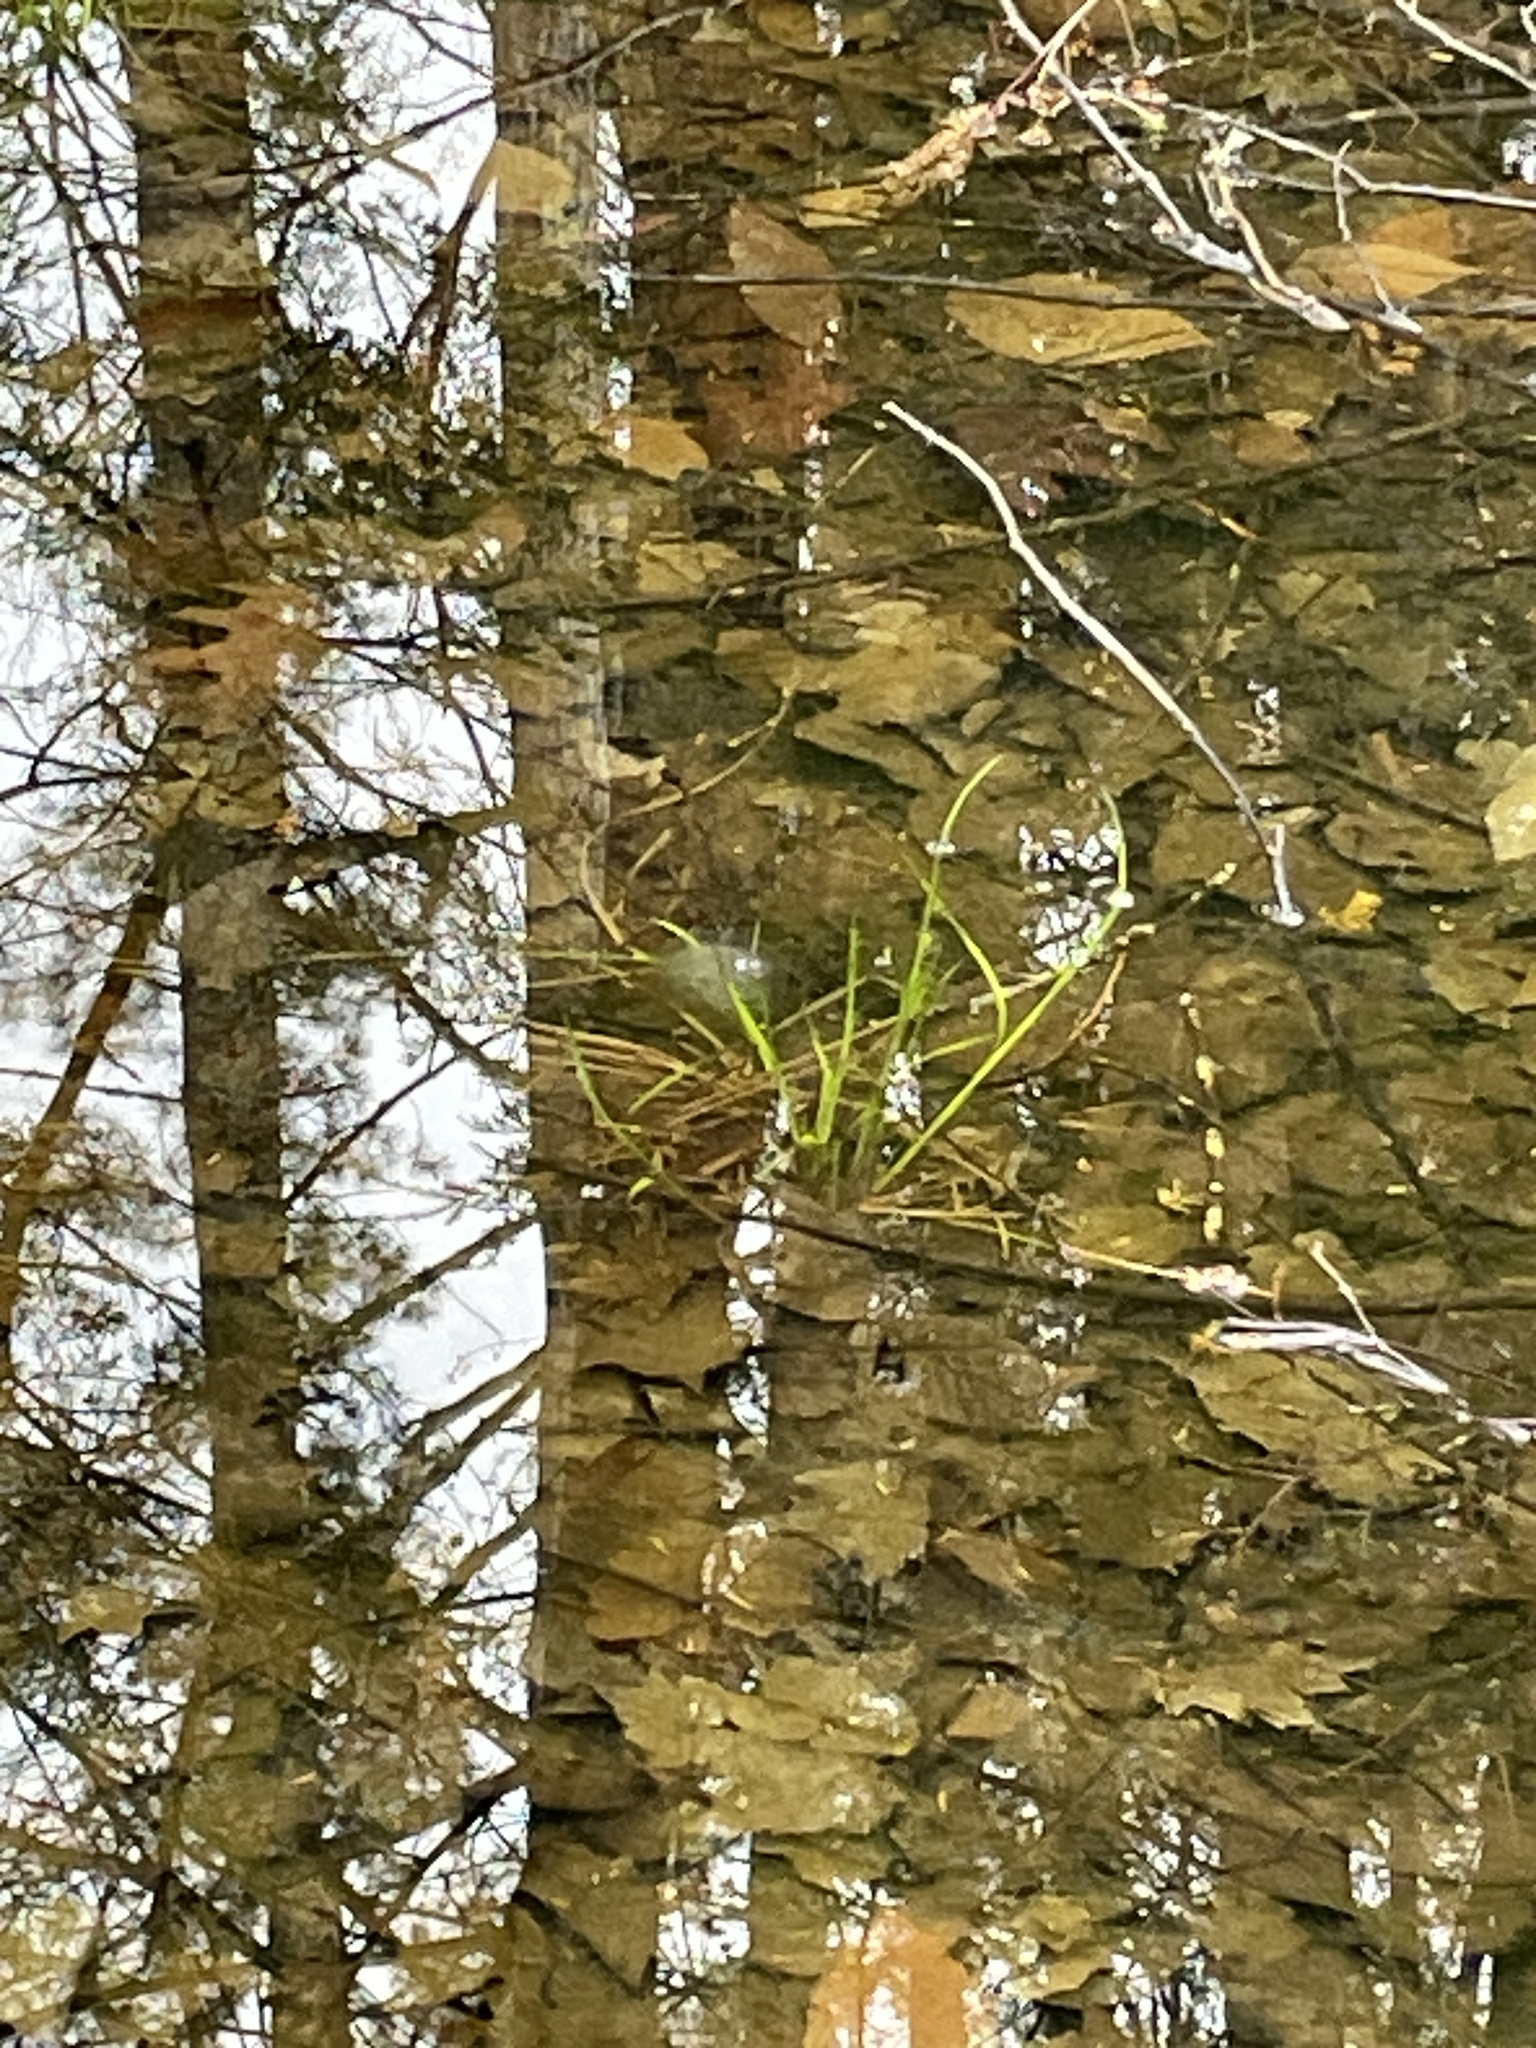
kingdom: Animalia
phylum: Chordata
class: Amphibia
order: Caudata
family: Ambystomatidae
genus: Ambystoma
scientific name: Ambystoma maculatum
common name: Spotted salamander
